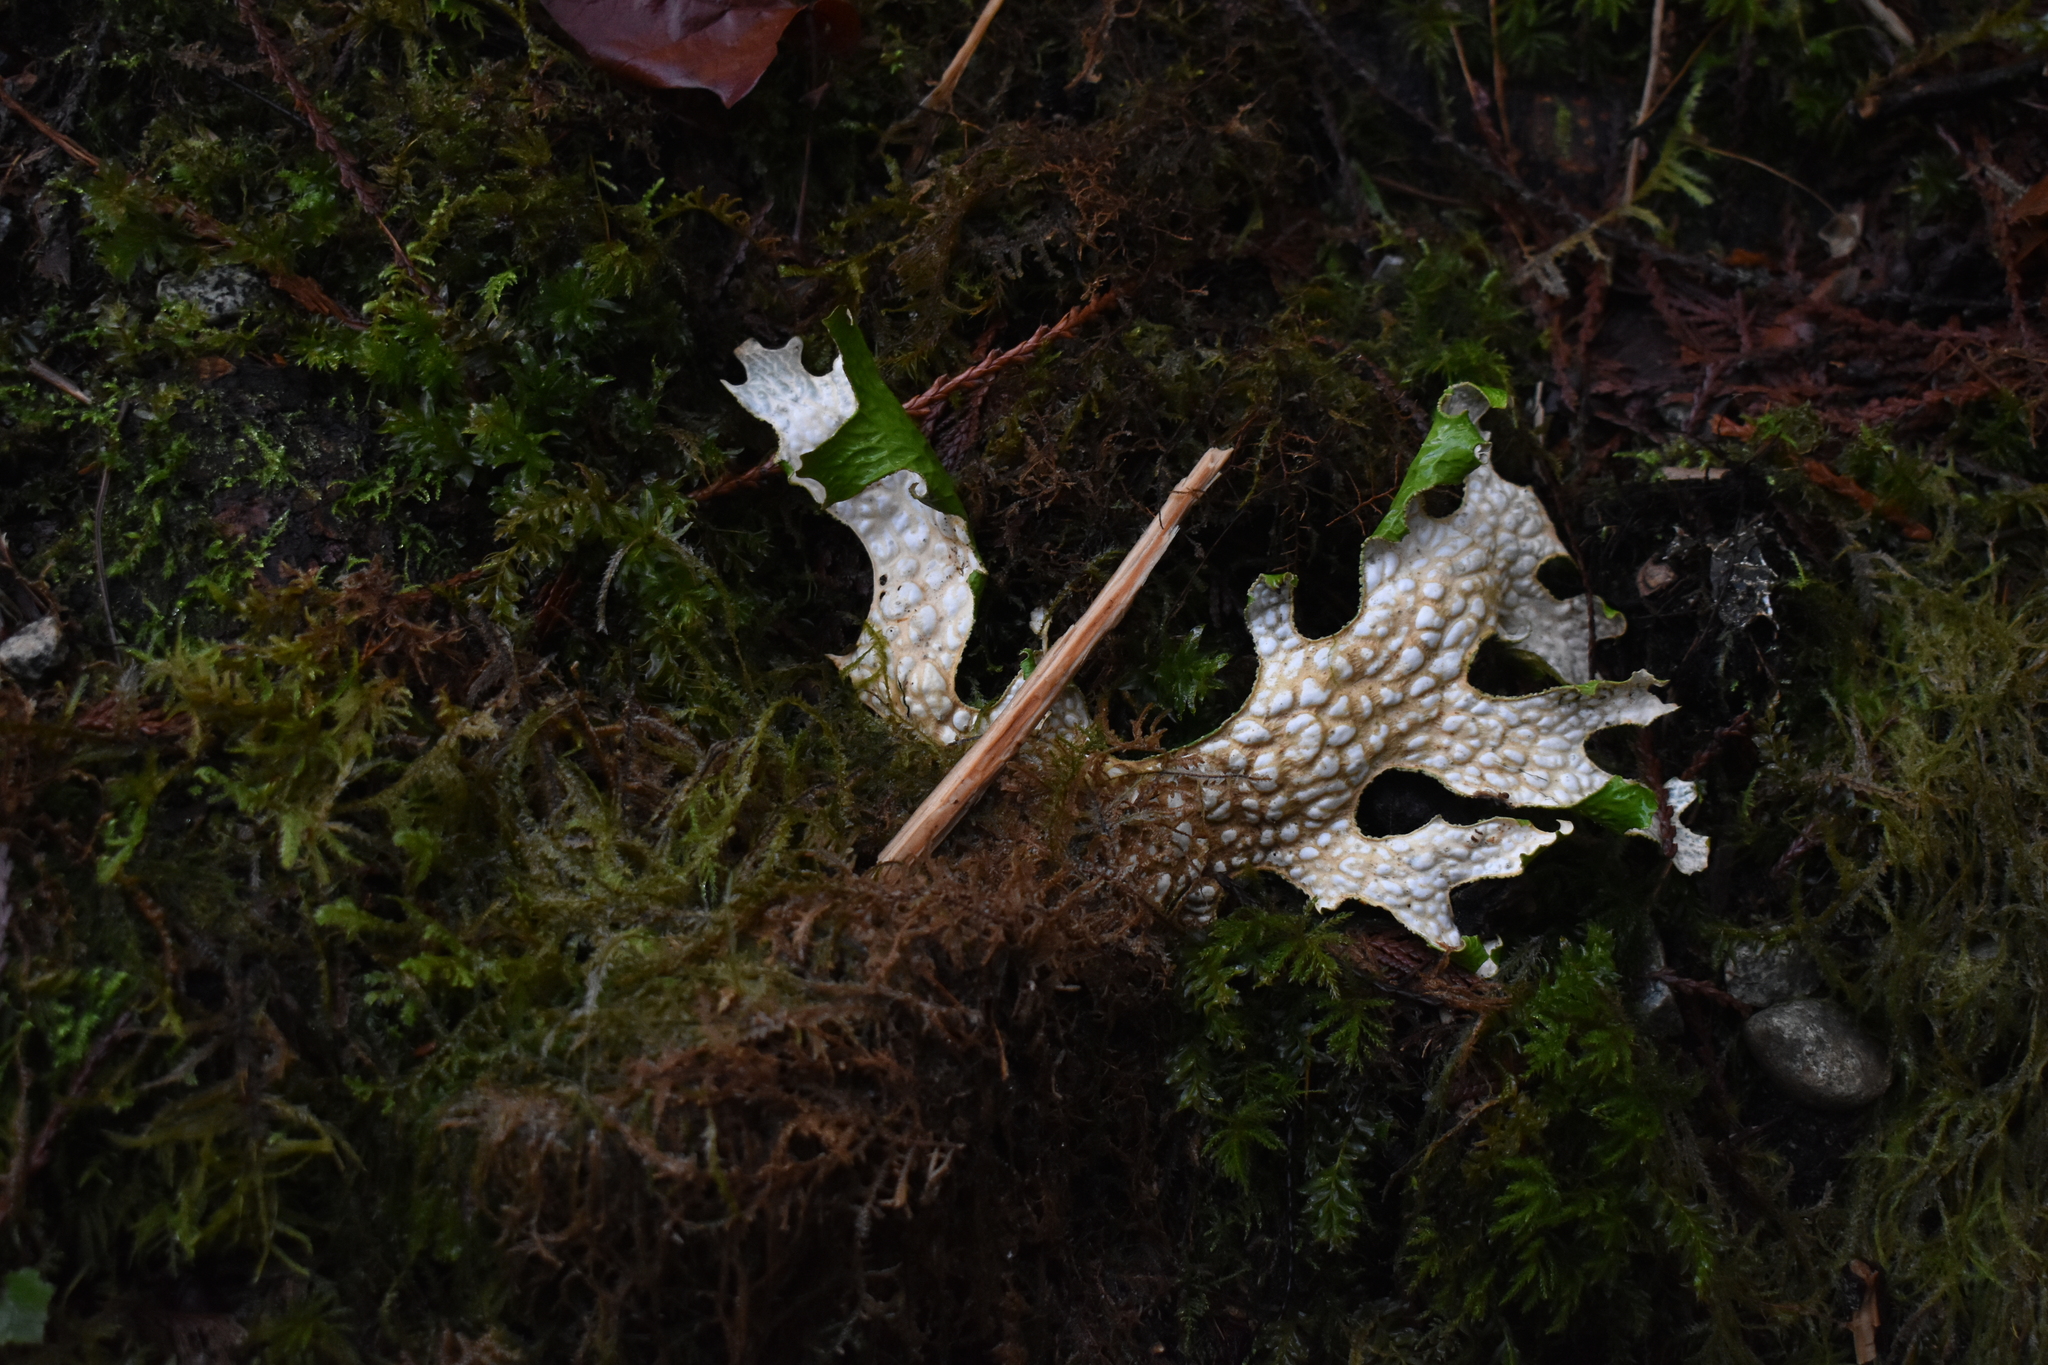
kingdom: Fungi
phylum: Ascomycota
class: Lecanoromycetes
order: Peltigerales
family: Lobariaceae
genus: Lobaria
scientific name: Lobaria pulmonaria
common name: Lungwort
